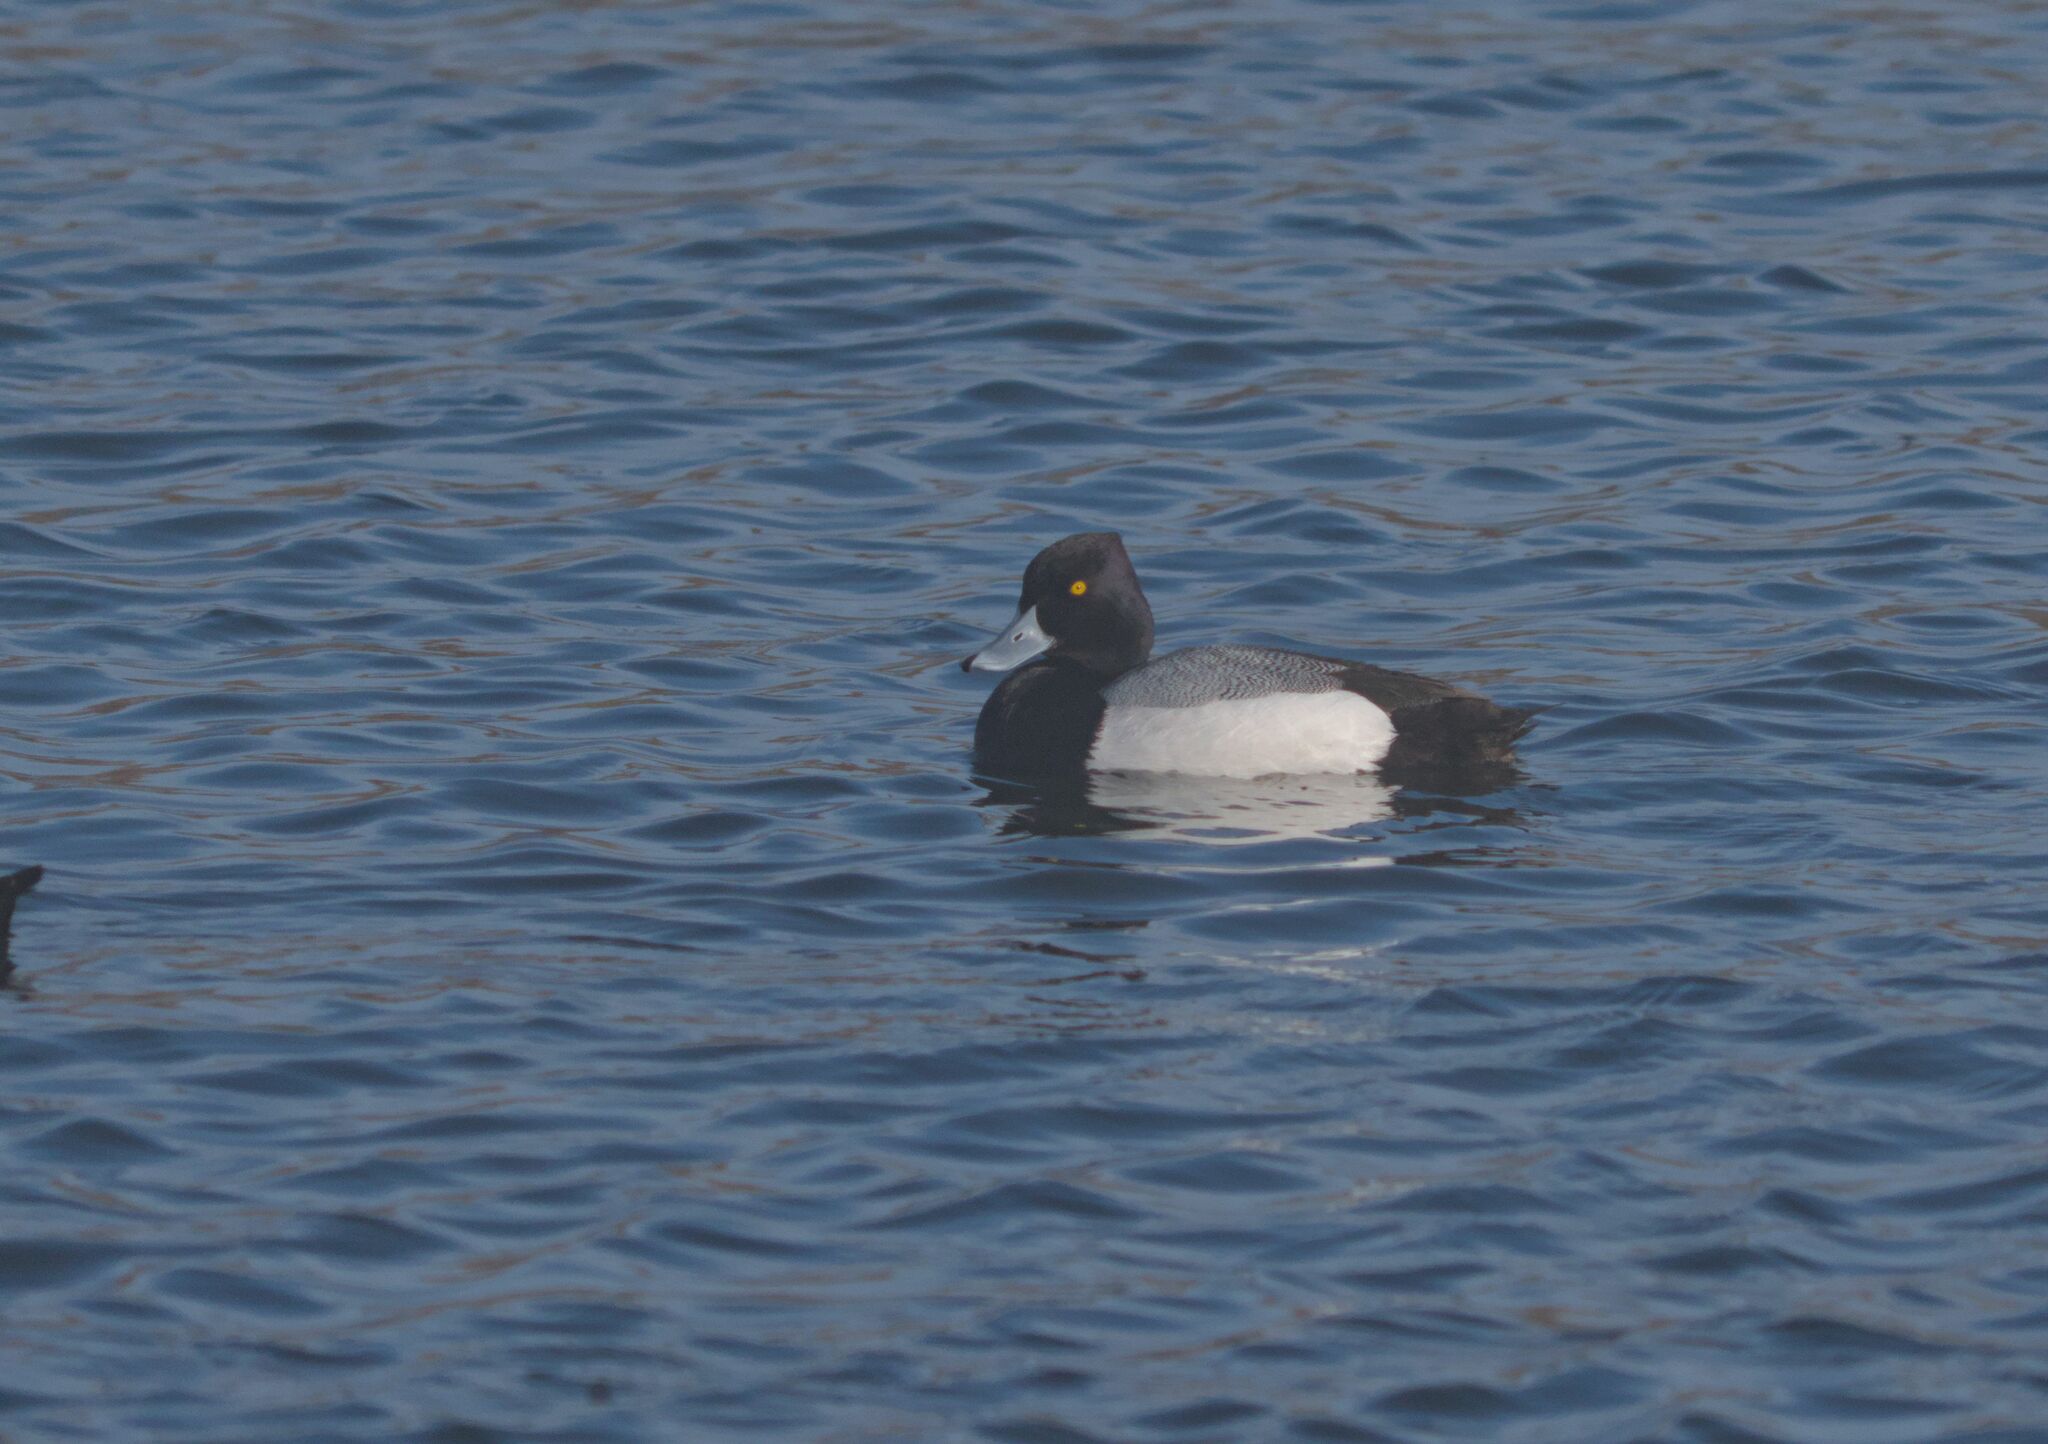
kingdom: Animalia
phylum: Chordata
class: Aves
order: Anseriformes
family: Anatidae
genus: Aythya
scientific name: Aythya affinis
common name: Lesser scaup
